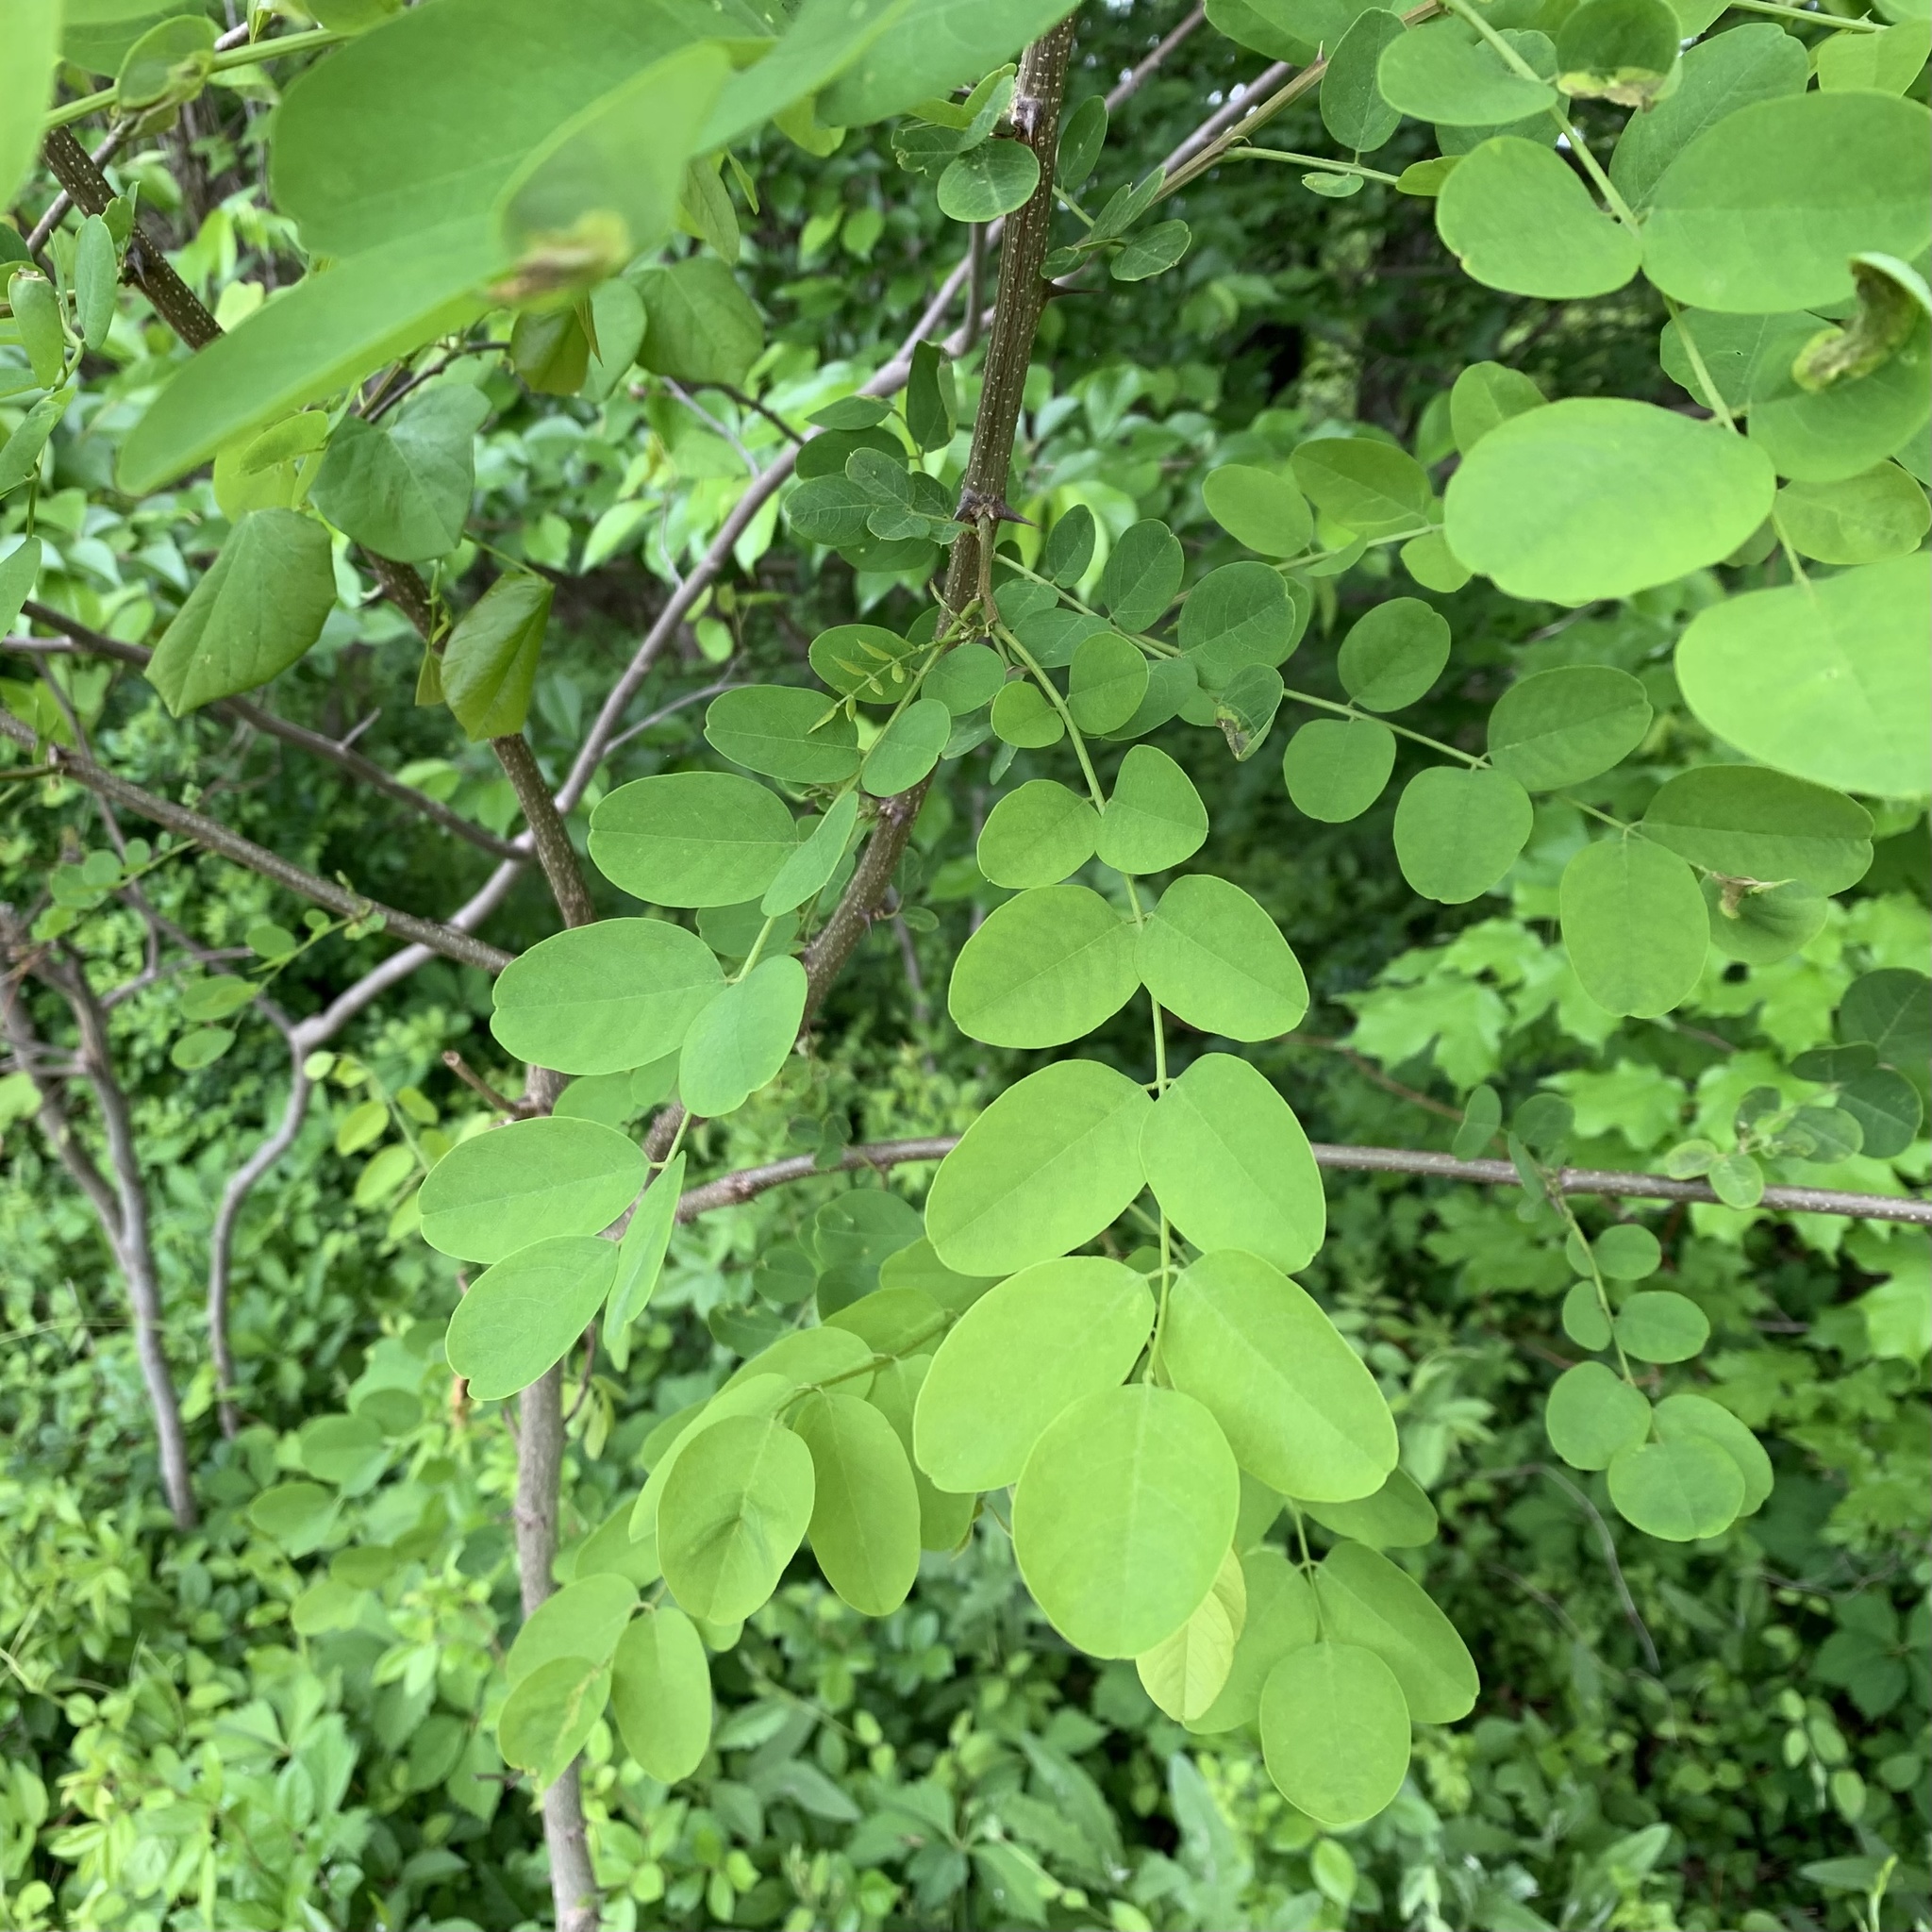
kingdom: Plantae
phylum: Tracheophyta
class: Magnoliopsida
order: Fabales
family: Fabaceae
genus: Robinia
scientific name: Robinia pseudoacacia
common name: Black locust
